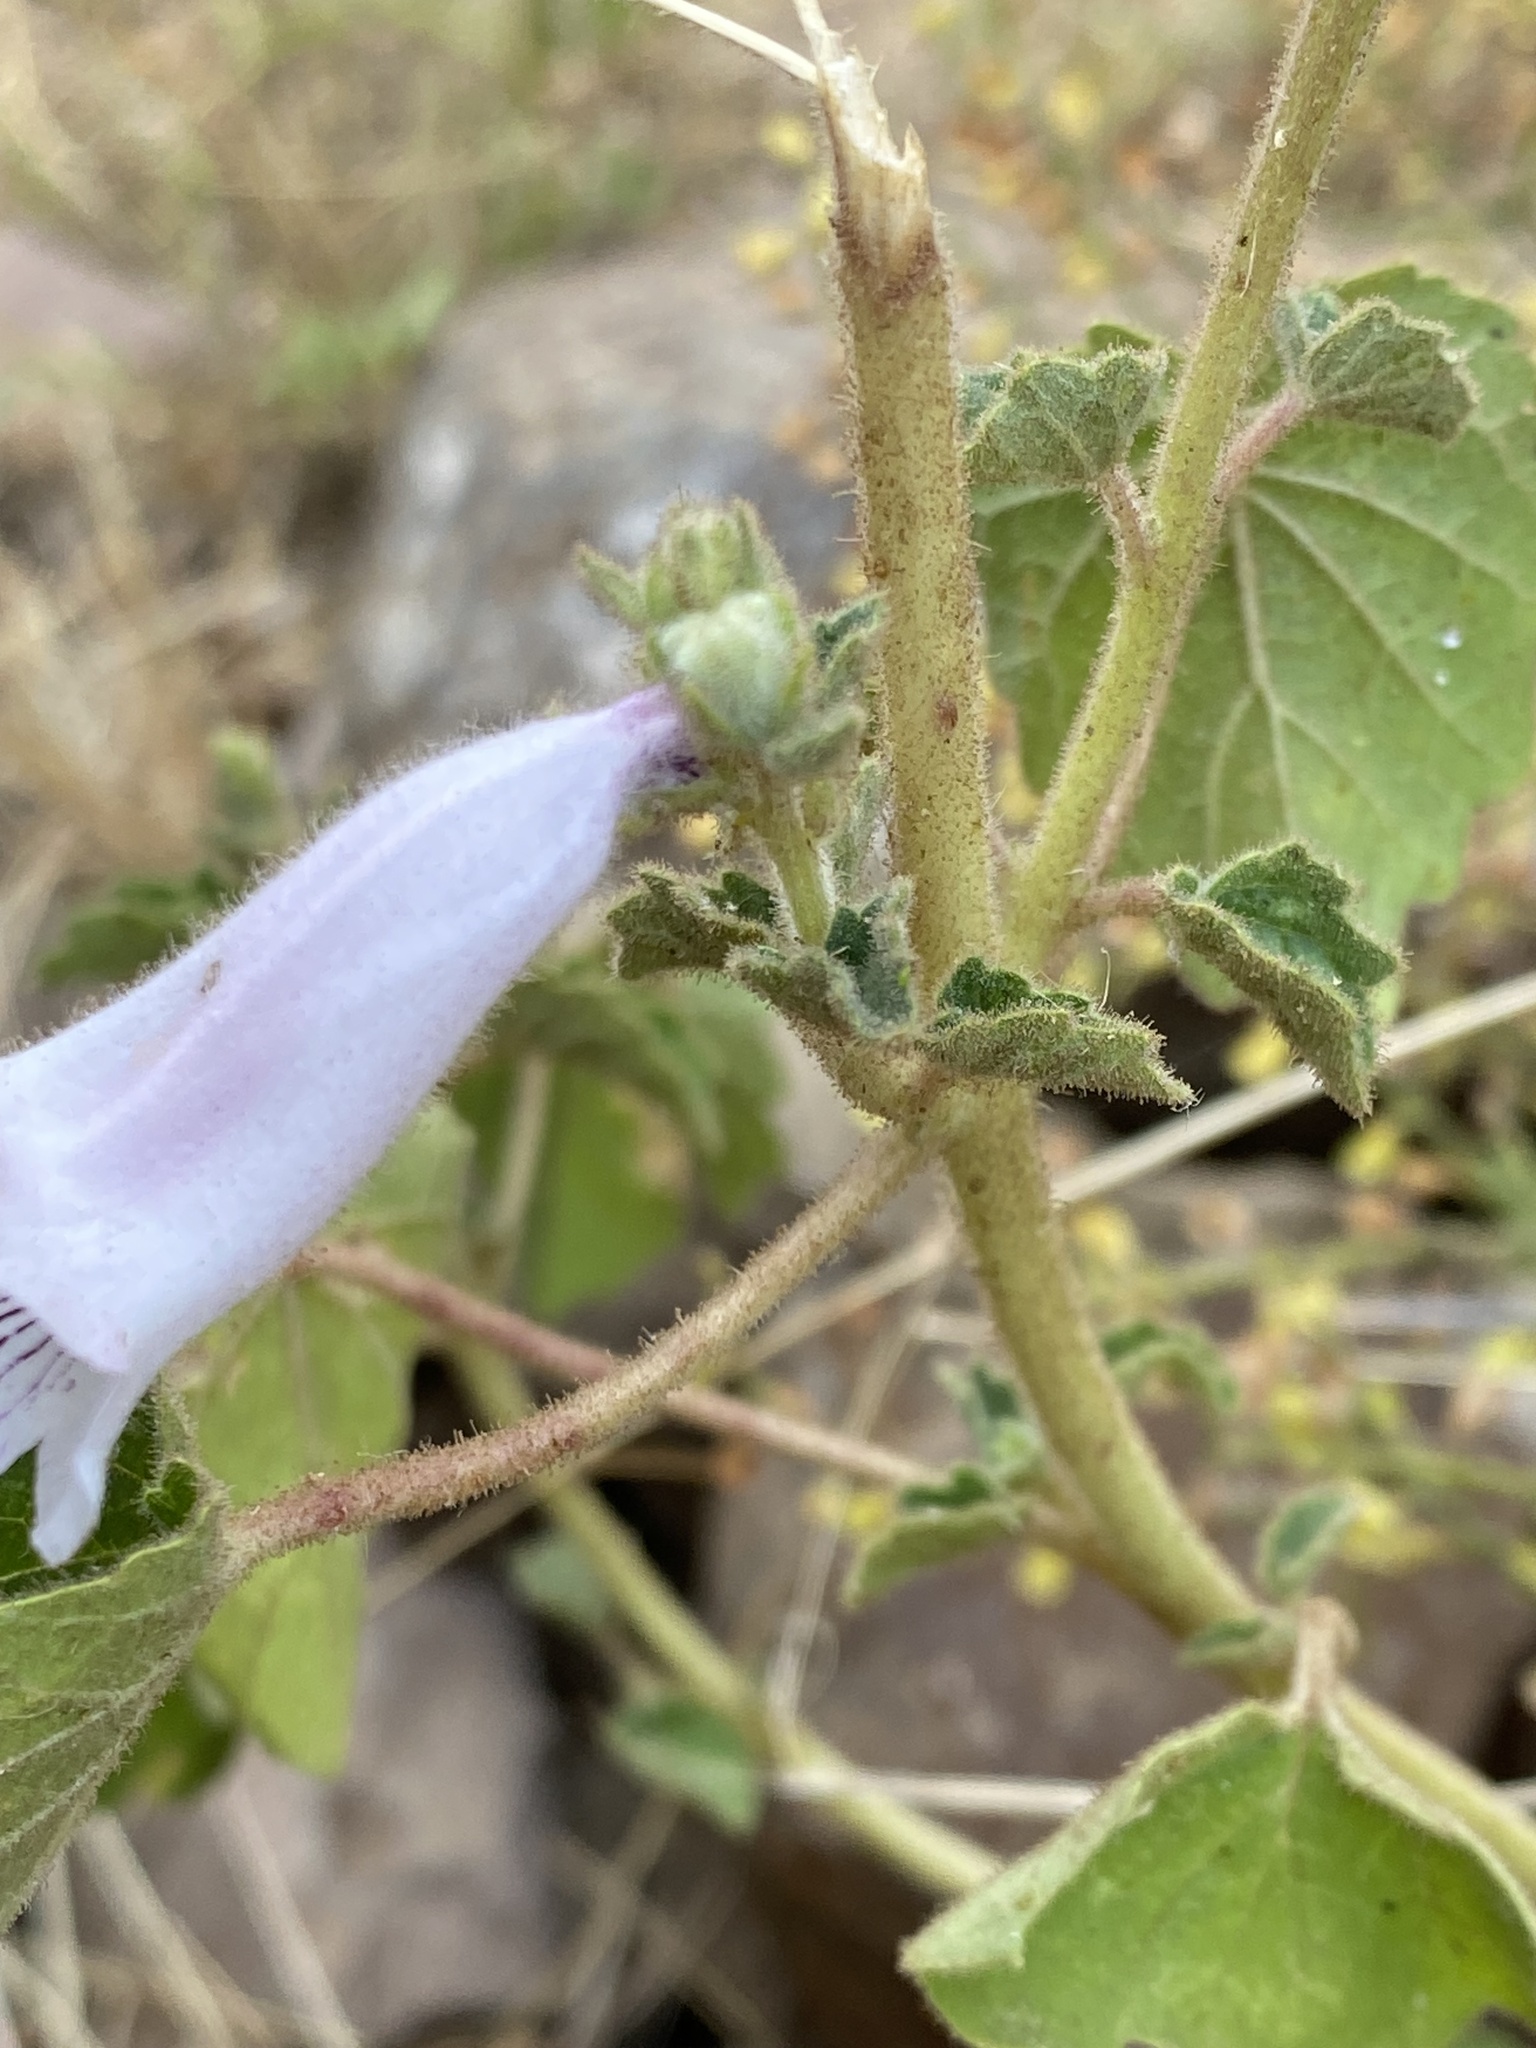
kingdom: Plantae
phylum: Tracheophyta
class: Magnoliopsida
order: Lamiales
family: Pedaliaceae
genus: Sesamum
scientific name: Sesamum trilobum
